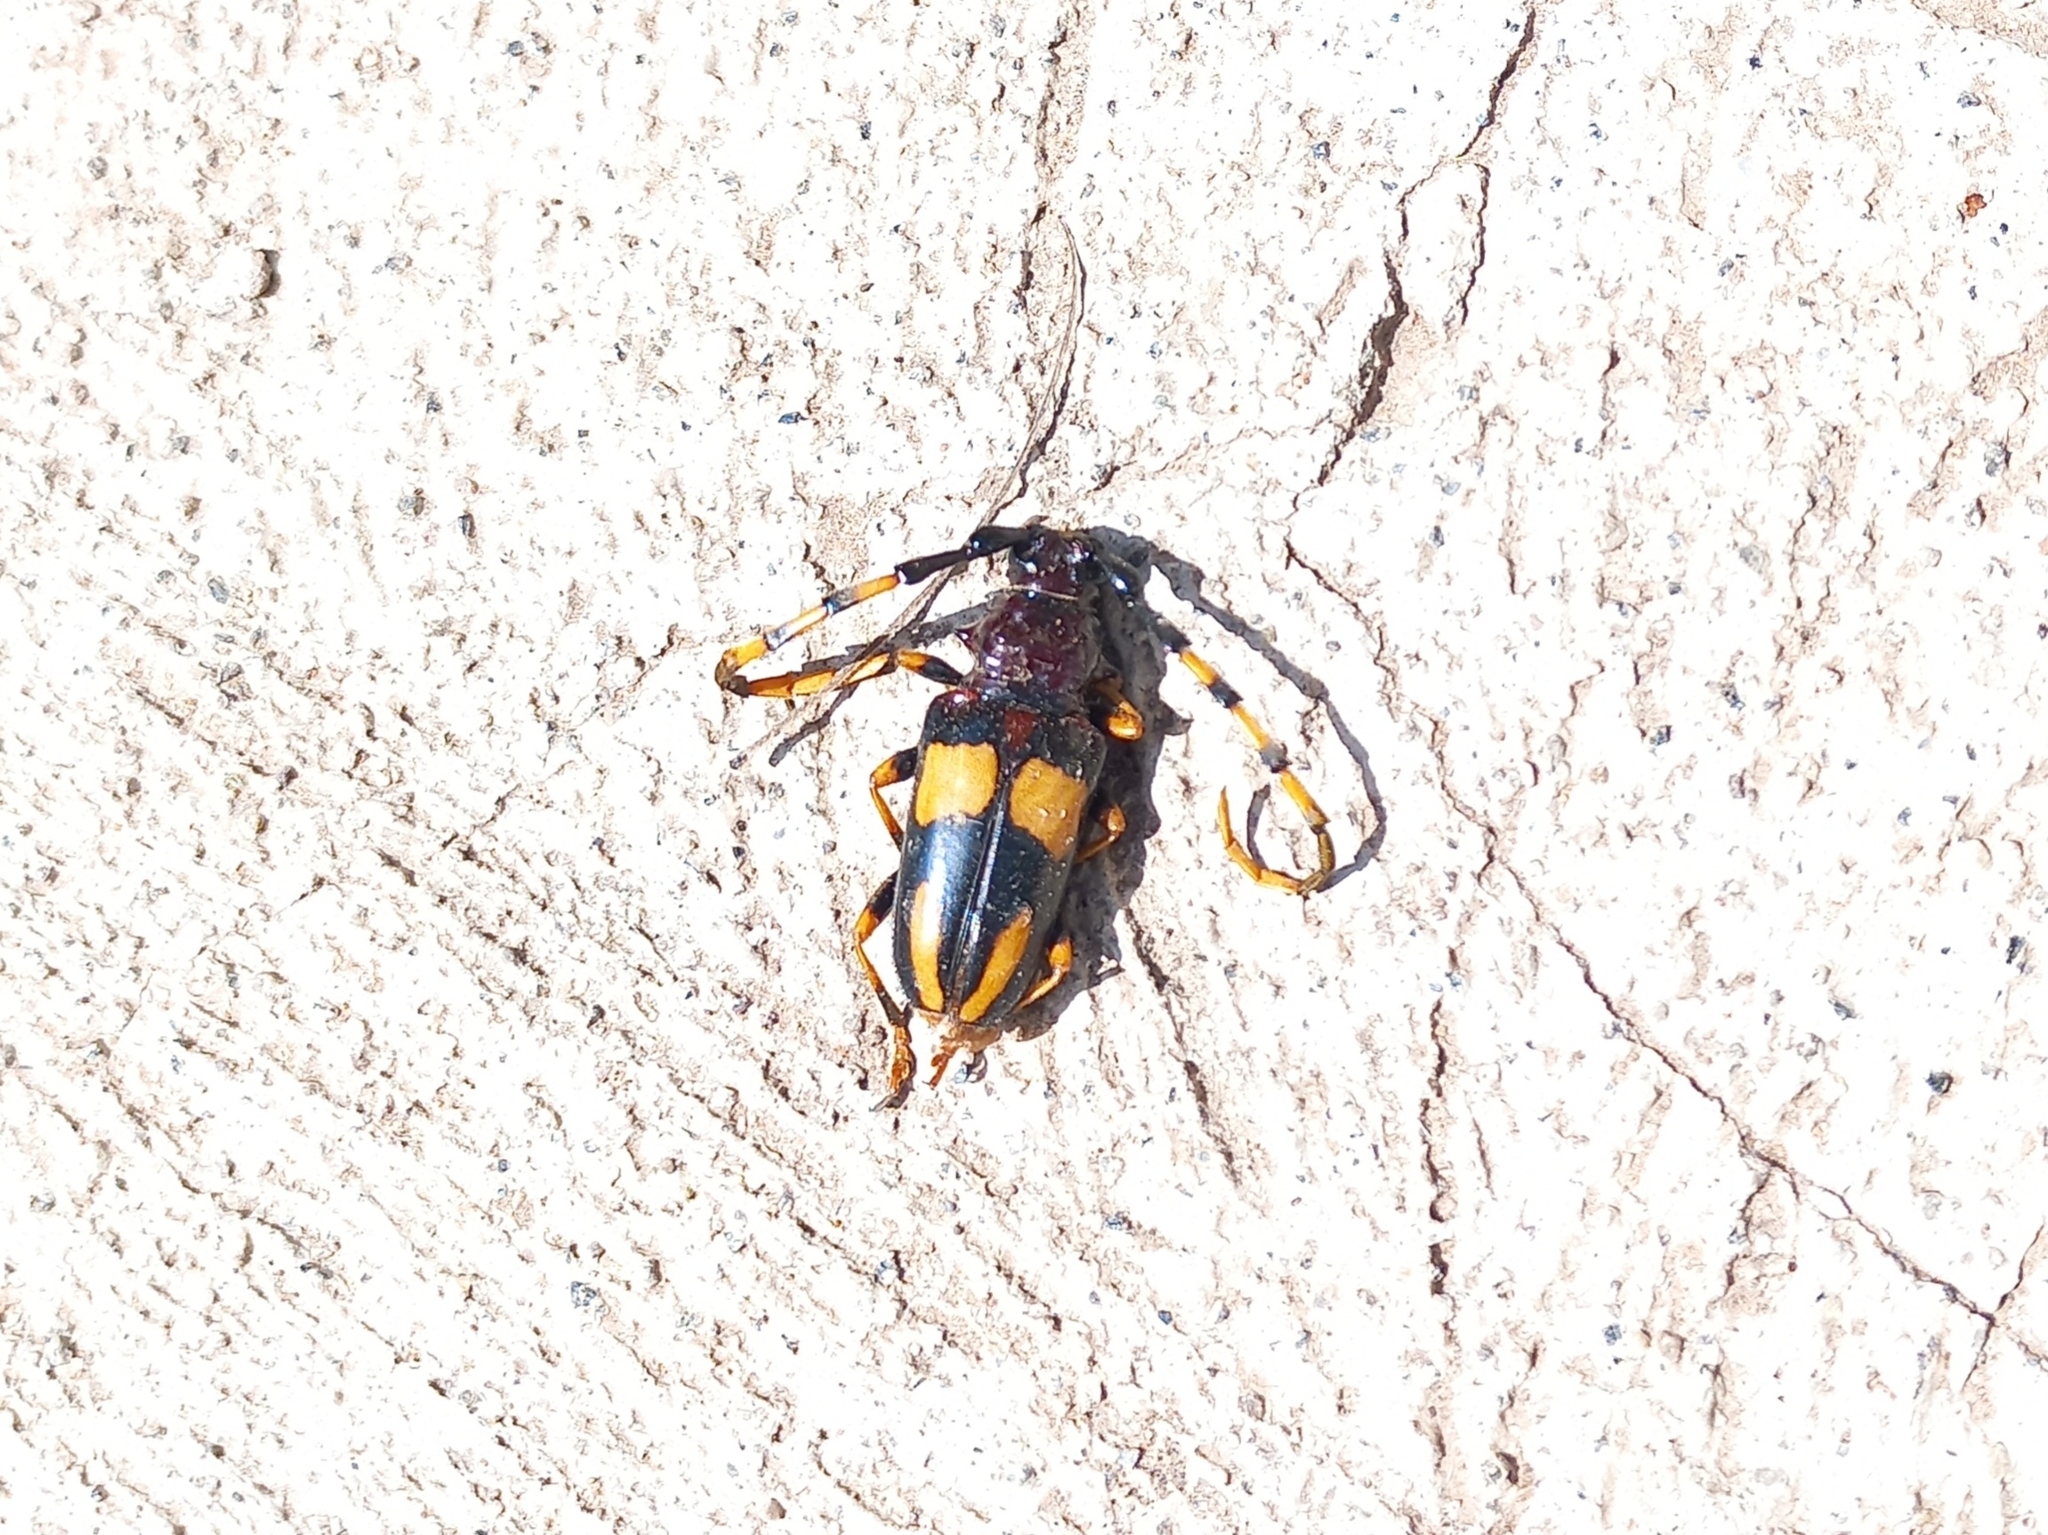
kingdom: Animalia
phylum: Arthropoda
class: Insecta
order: Coleoptera
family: Cerambycidae
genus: Trachyderes
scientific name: Trachyderes mandibularis
